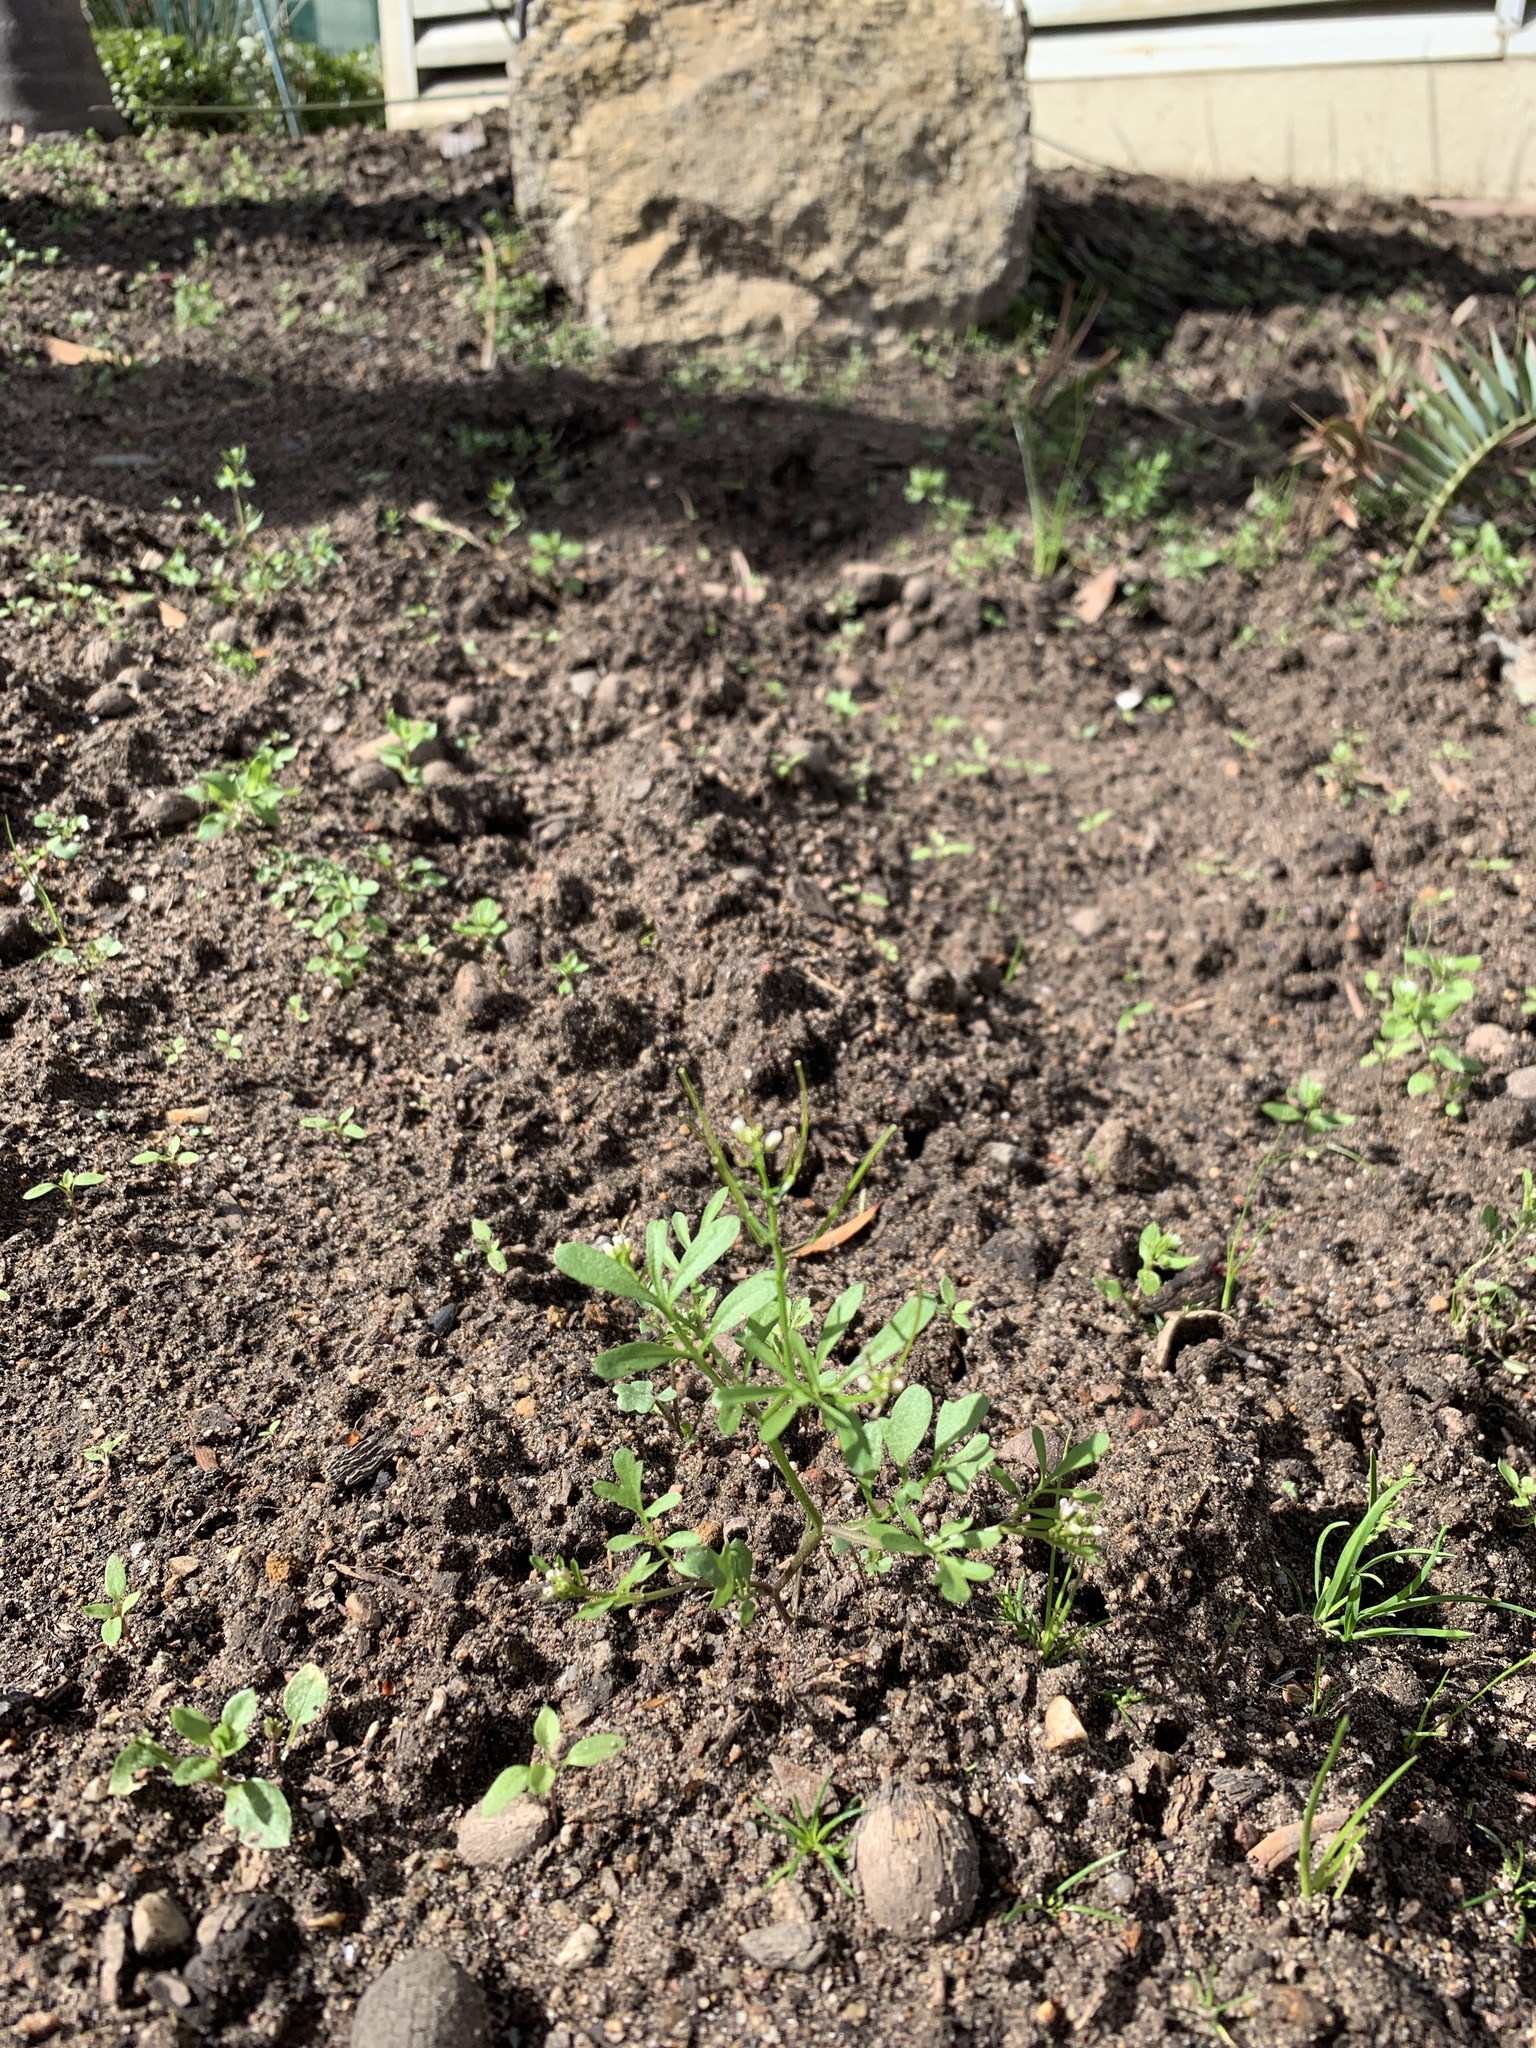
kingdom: Plantae
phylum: Tracheophyta
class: Magnoliopsida
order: Brassicales
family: Brassicaceae
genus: Cardamine
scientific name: Cardamine occulta
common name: Asian wavy bittercress
